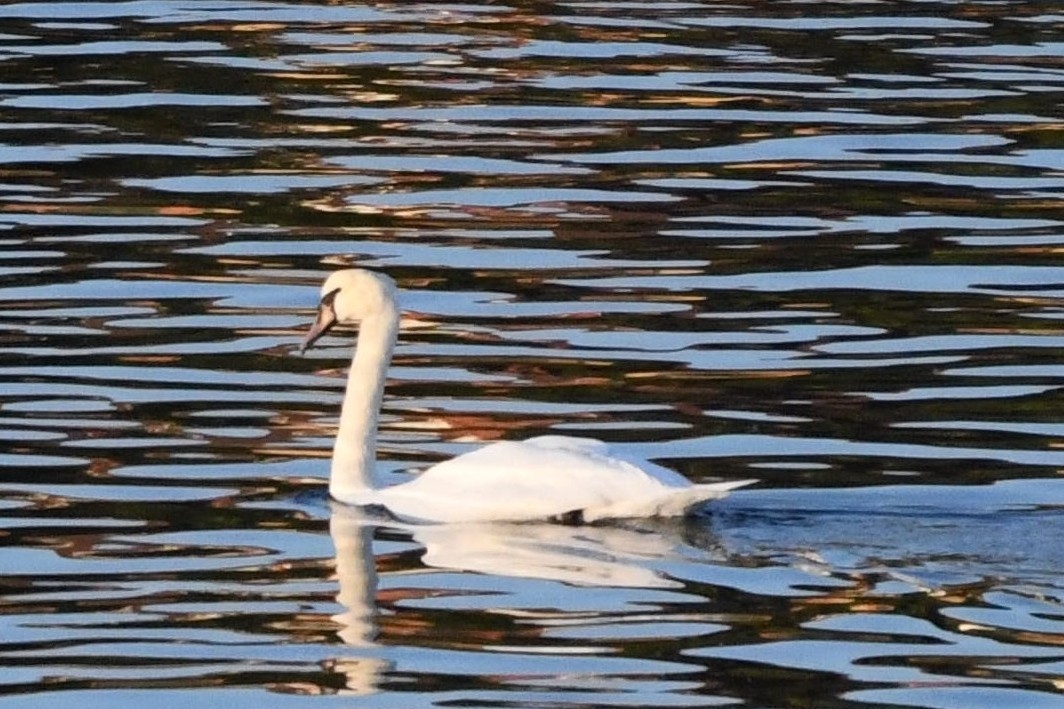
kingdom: Animalia
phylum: Chordata
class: Aves
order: Anseriformes
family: Anatidae
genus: Cygnus
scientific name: Cygnus olor
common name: Mute swan
